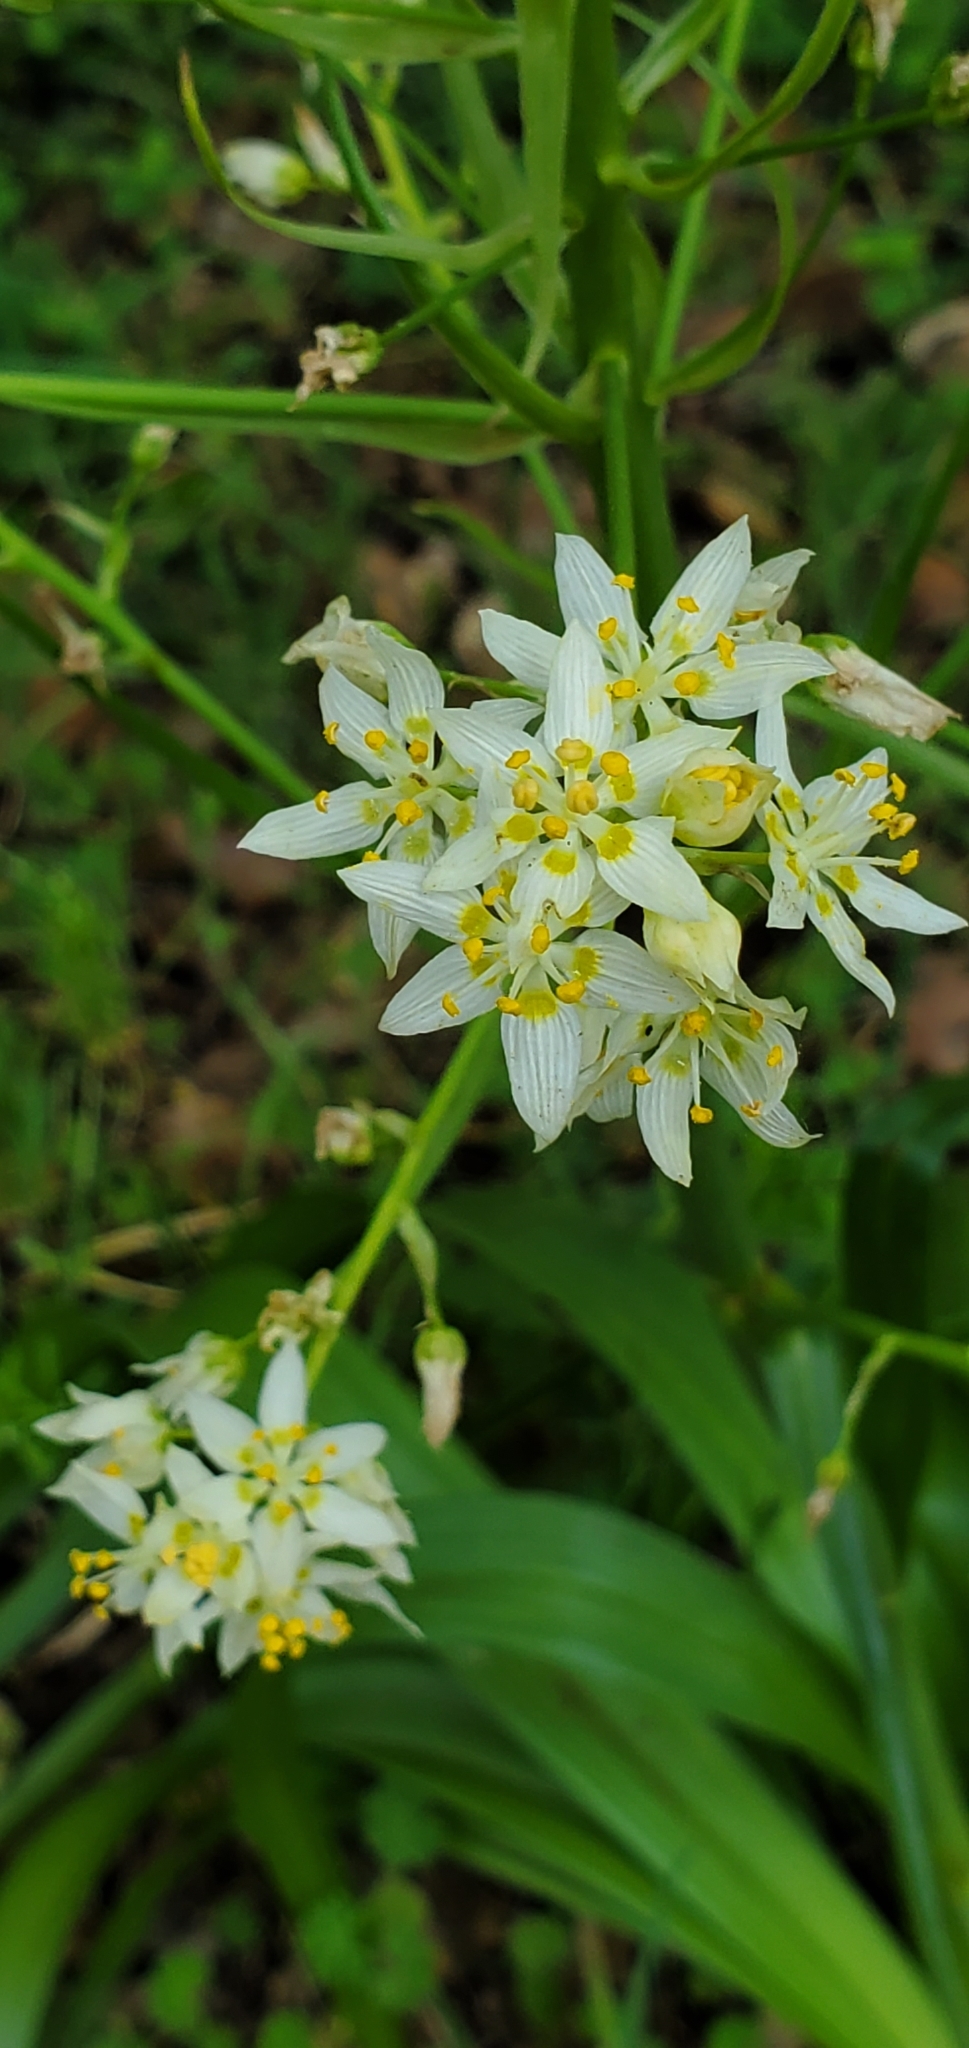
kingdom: Plantae
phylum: Tracheophyta
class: Liliopsida
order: Liliales
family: Melanthiaceae
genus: Toxicoscordion
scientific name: Toxicoscordion fremontii
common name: Fremont's death camas
